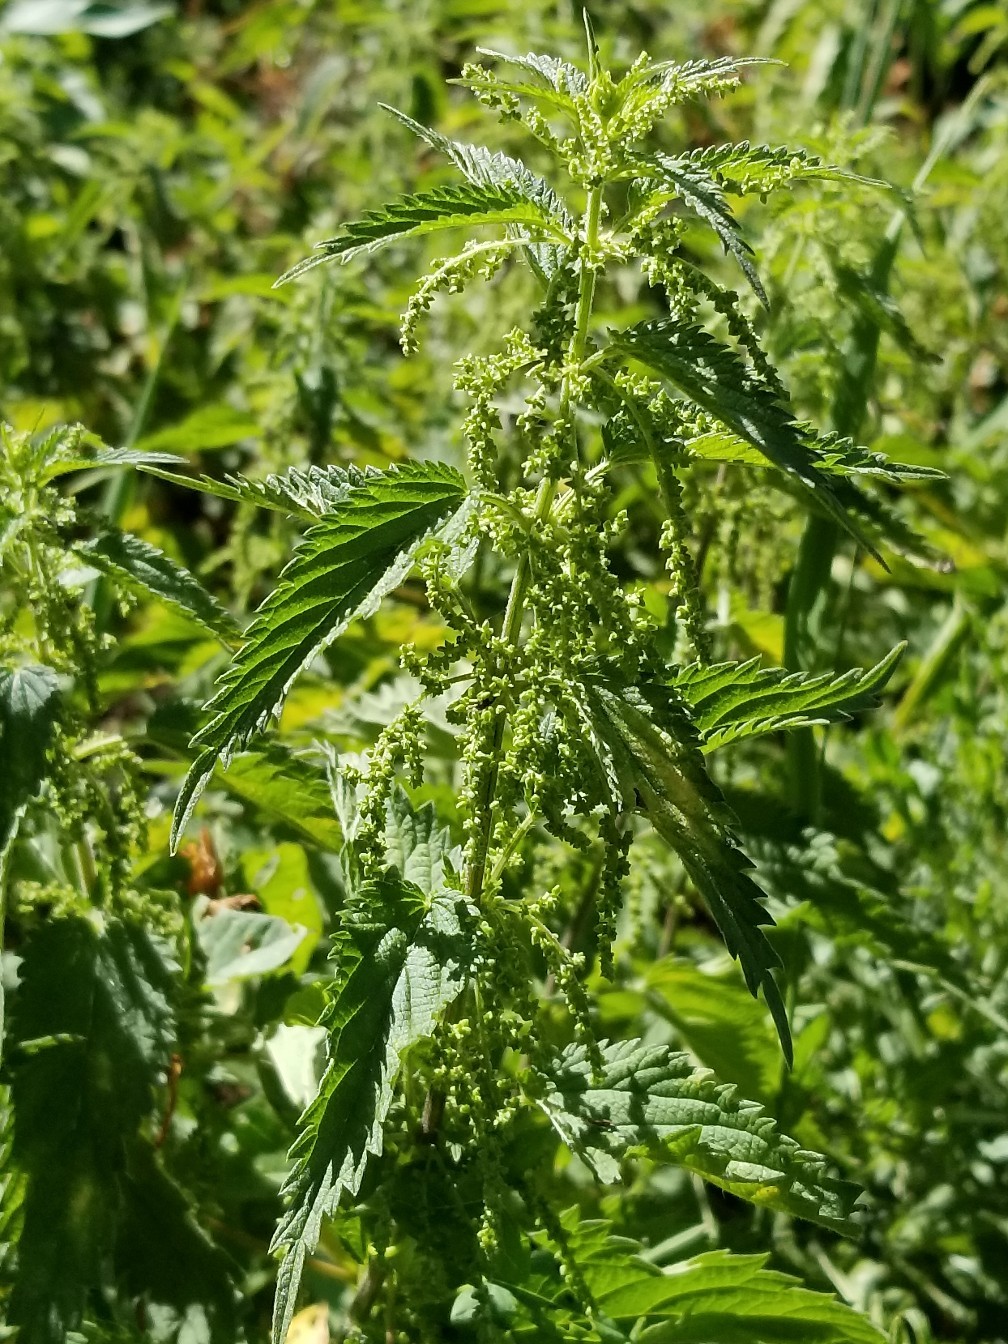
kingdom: Plantae
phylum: Tracheophyta
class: Magnoliopsida
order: Rosales
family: Urticaceae
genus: Urtica
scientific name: Urtica dioica
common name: Common nettle
